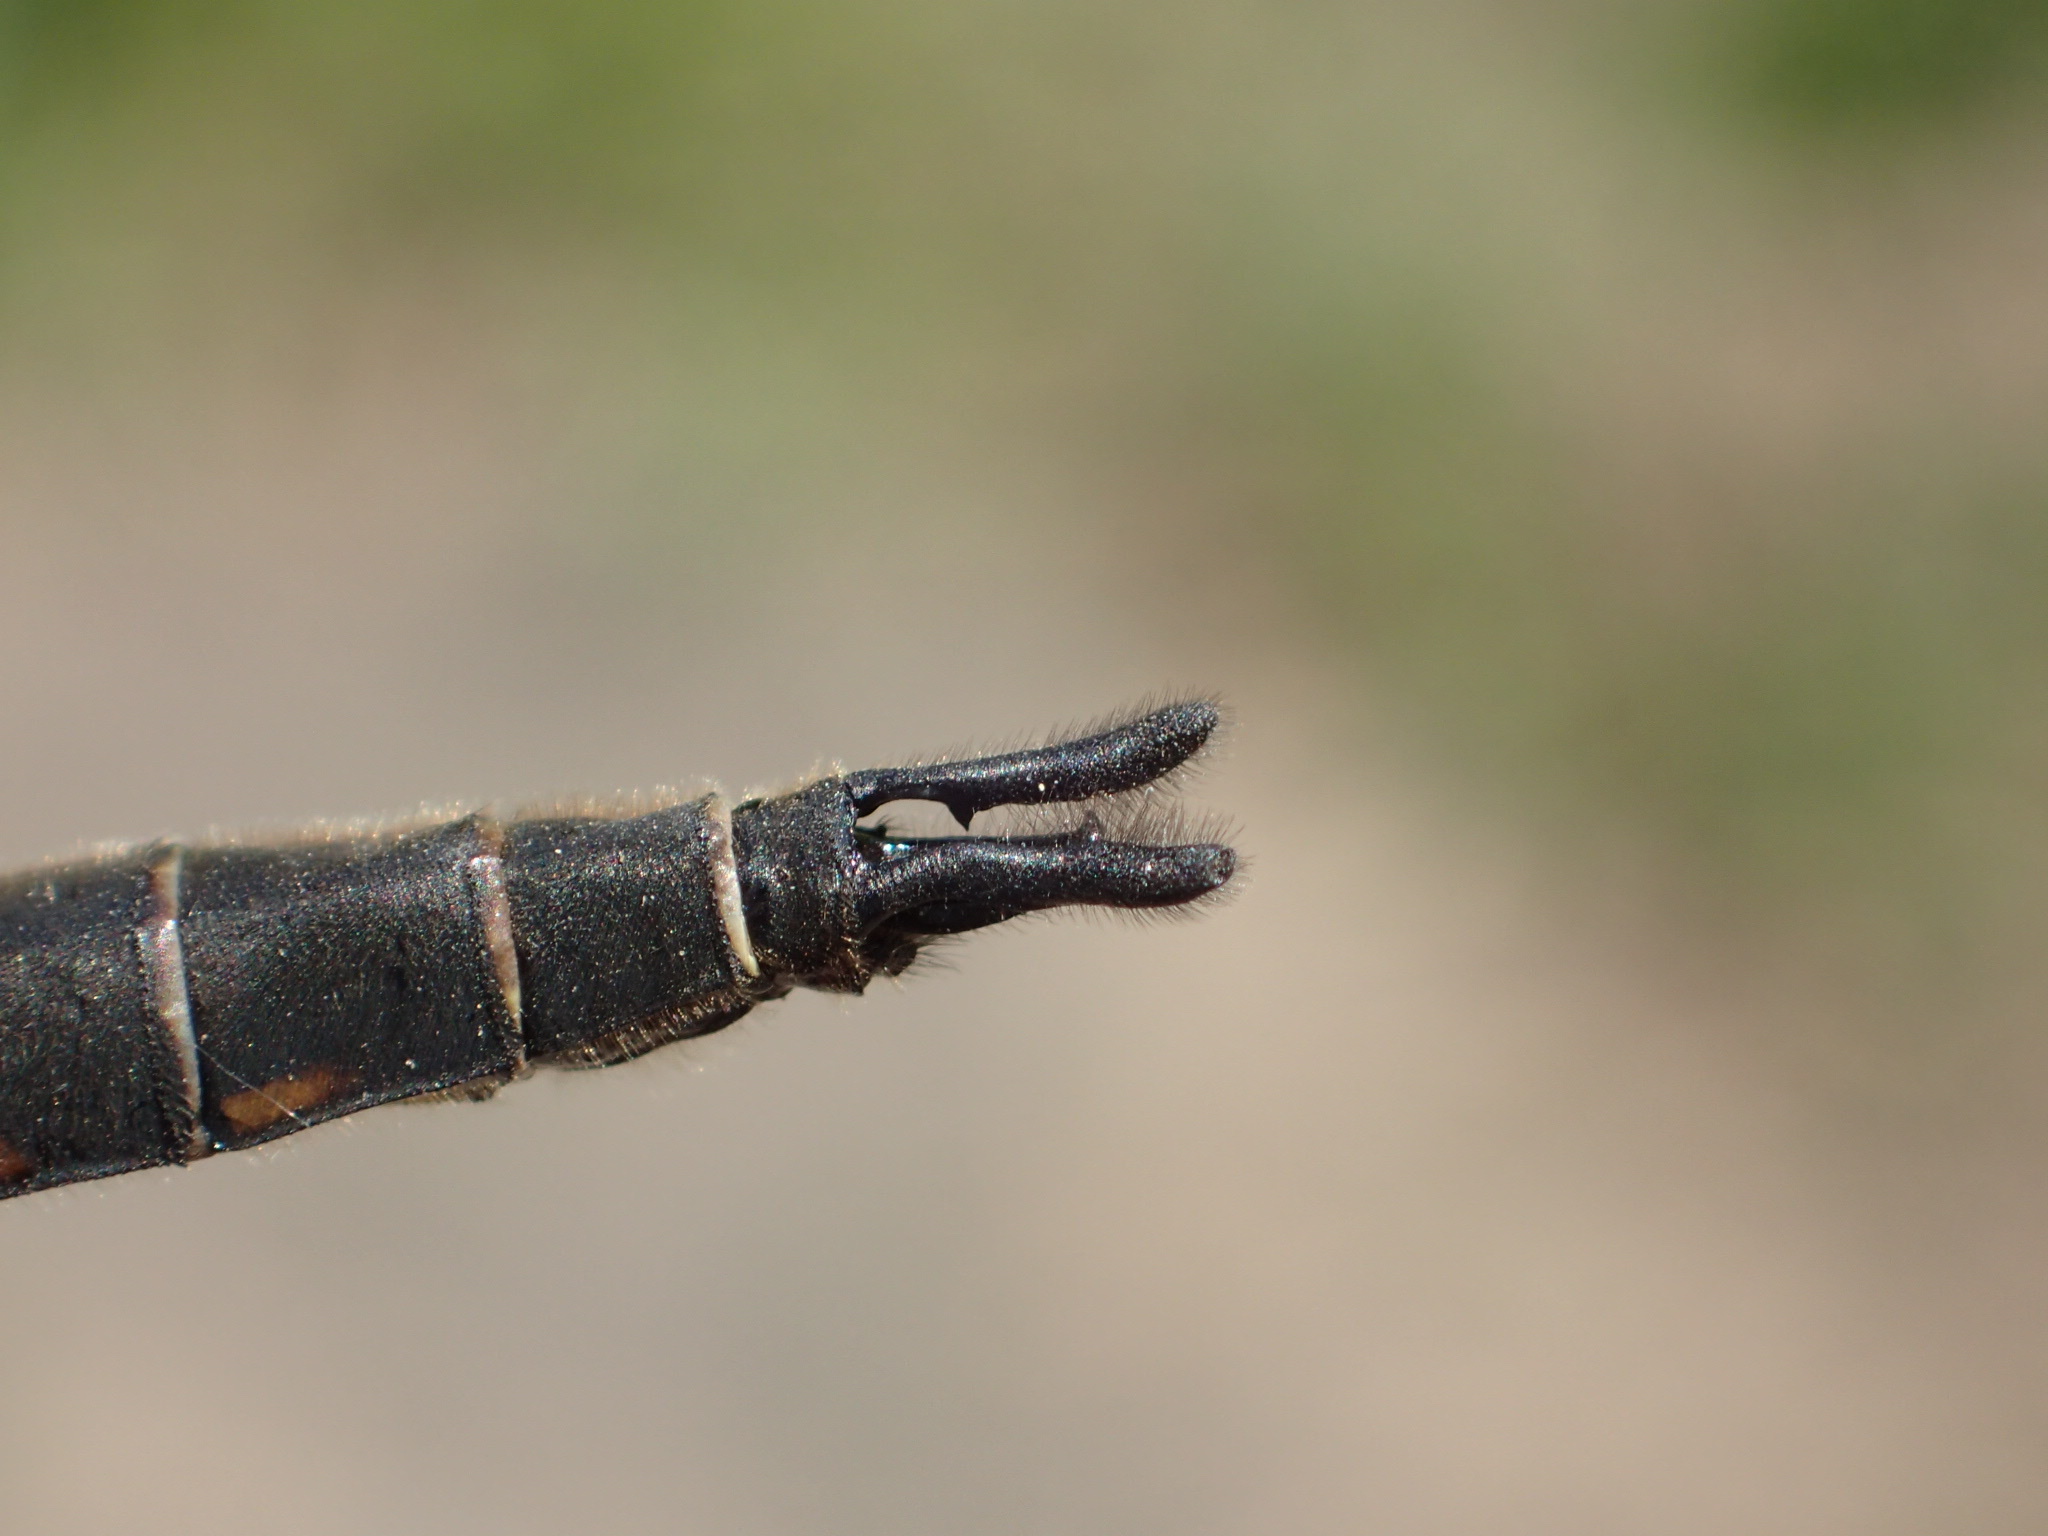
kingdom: Animalia
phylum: Arthropoda
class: Insecta
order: Odonata
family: Corduliidae
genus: Epitheca
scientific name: Epitheca spinigera
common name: Spiny baskettail
